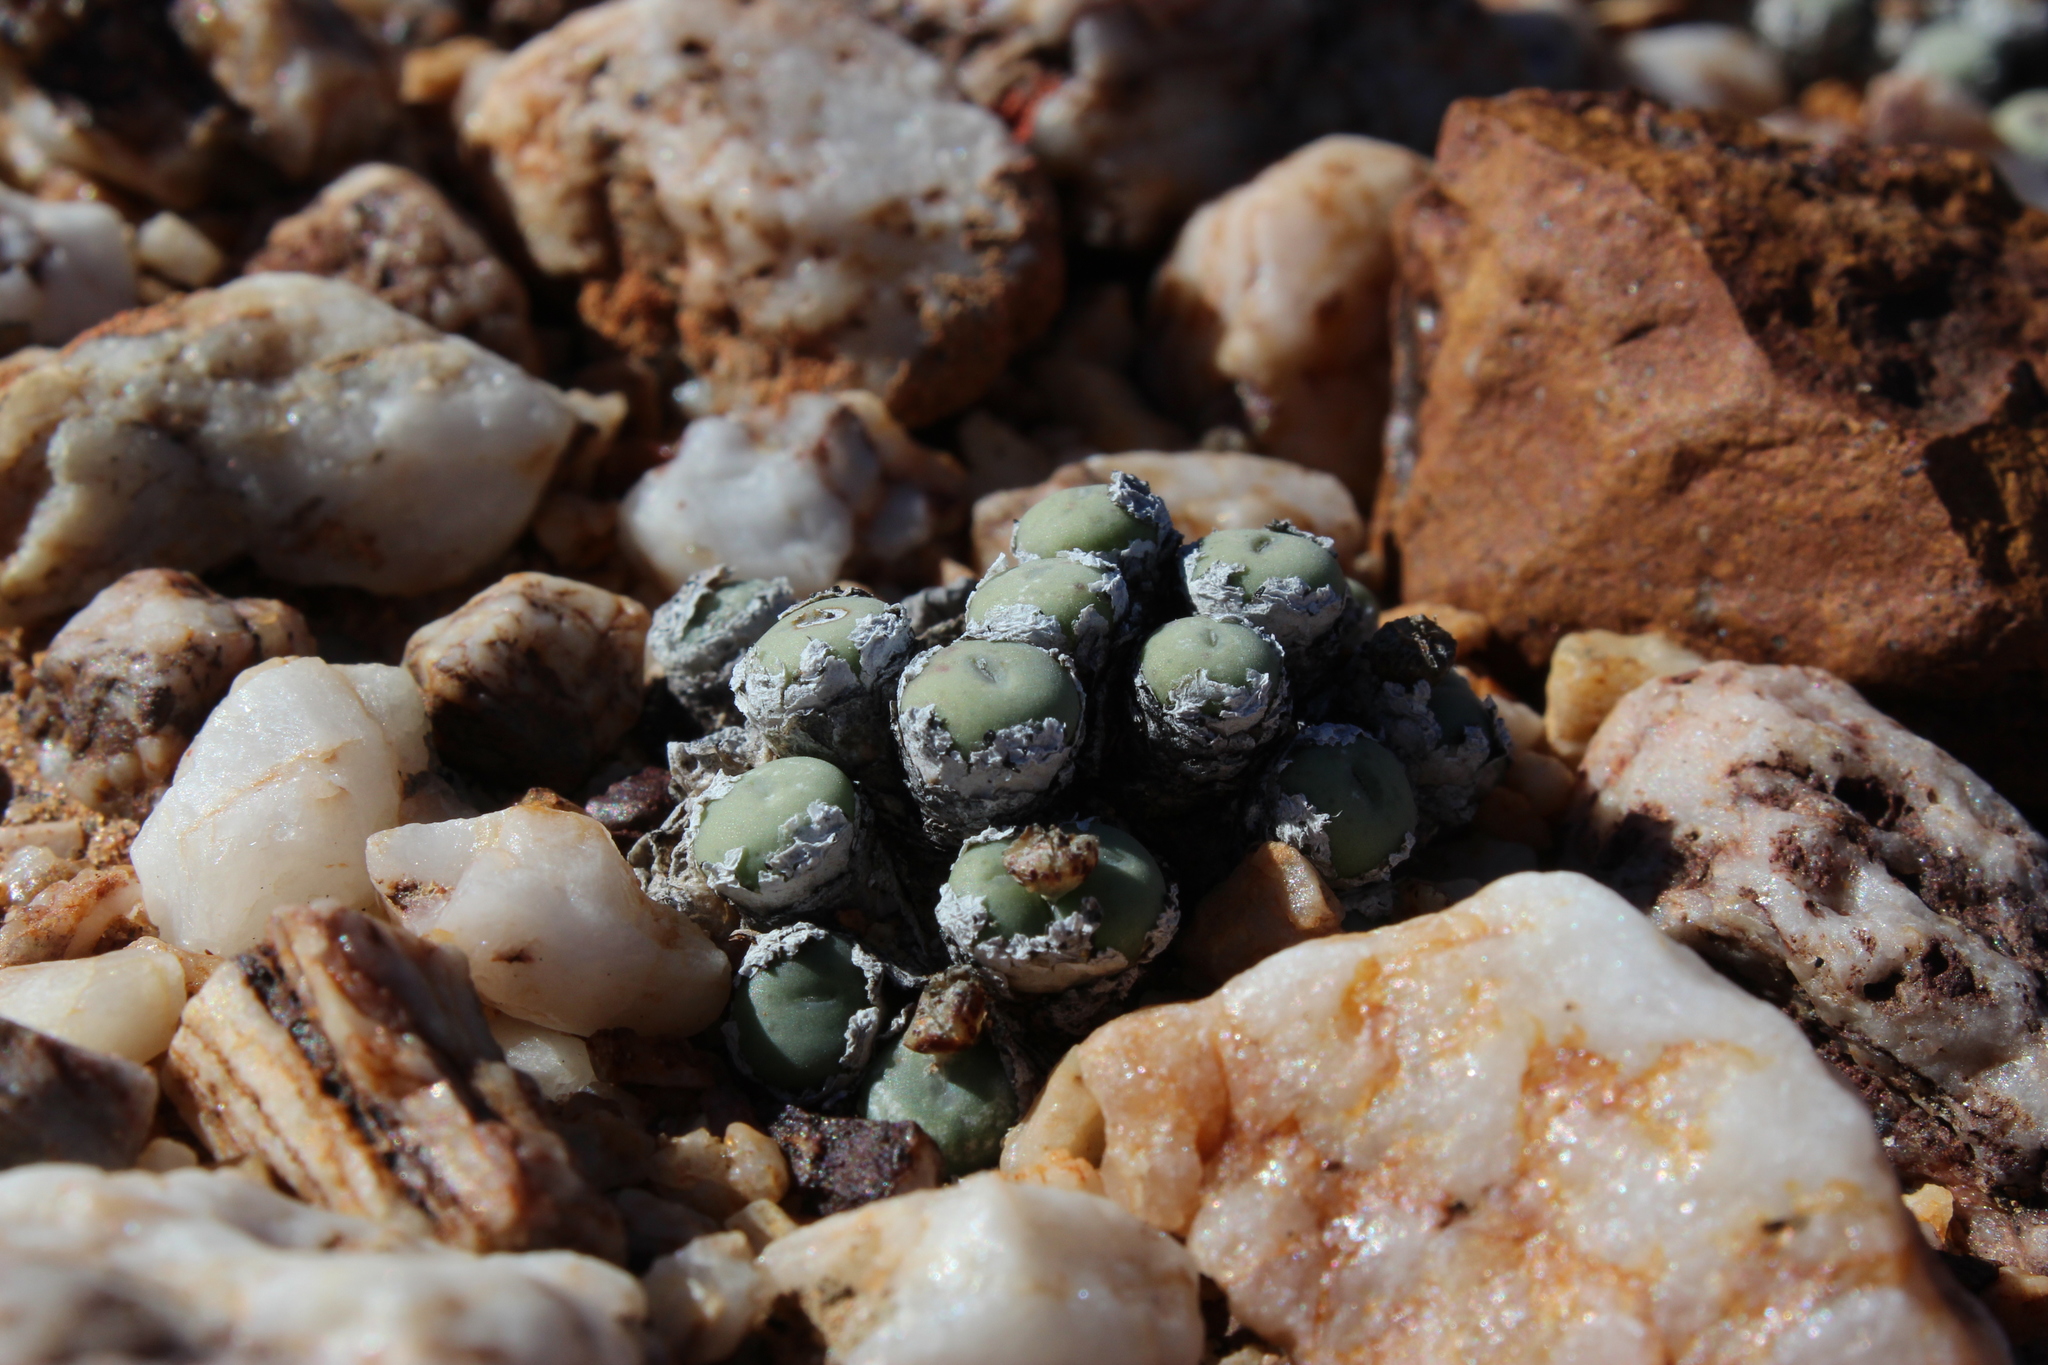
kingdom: Plantae
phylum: Tracheophyta
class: Magnoliopsida
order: Caryophyllales
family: Aizoaceae
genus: Conophytum
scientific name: Conophytum minutum
